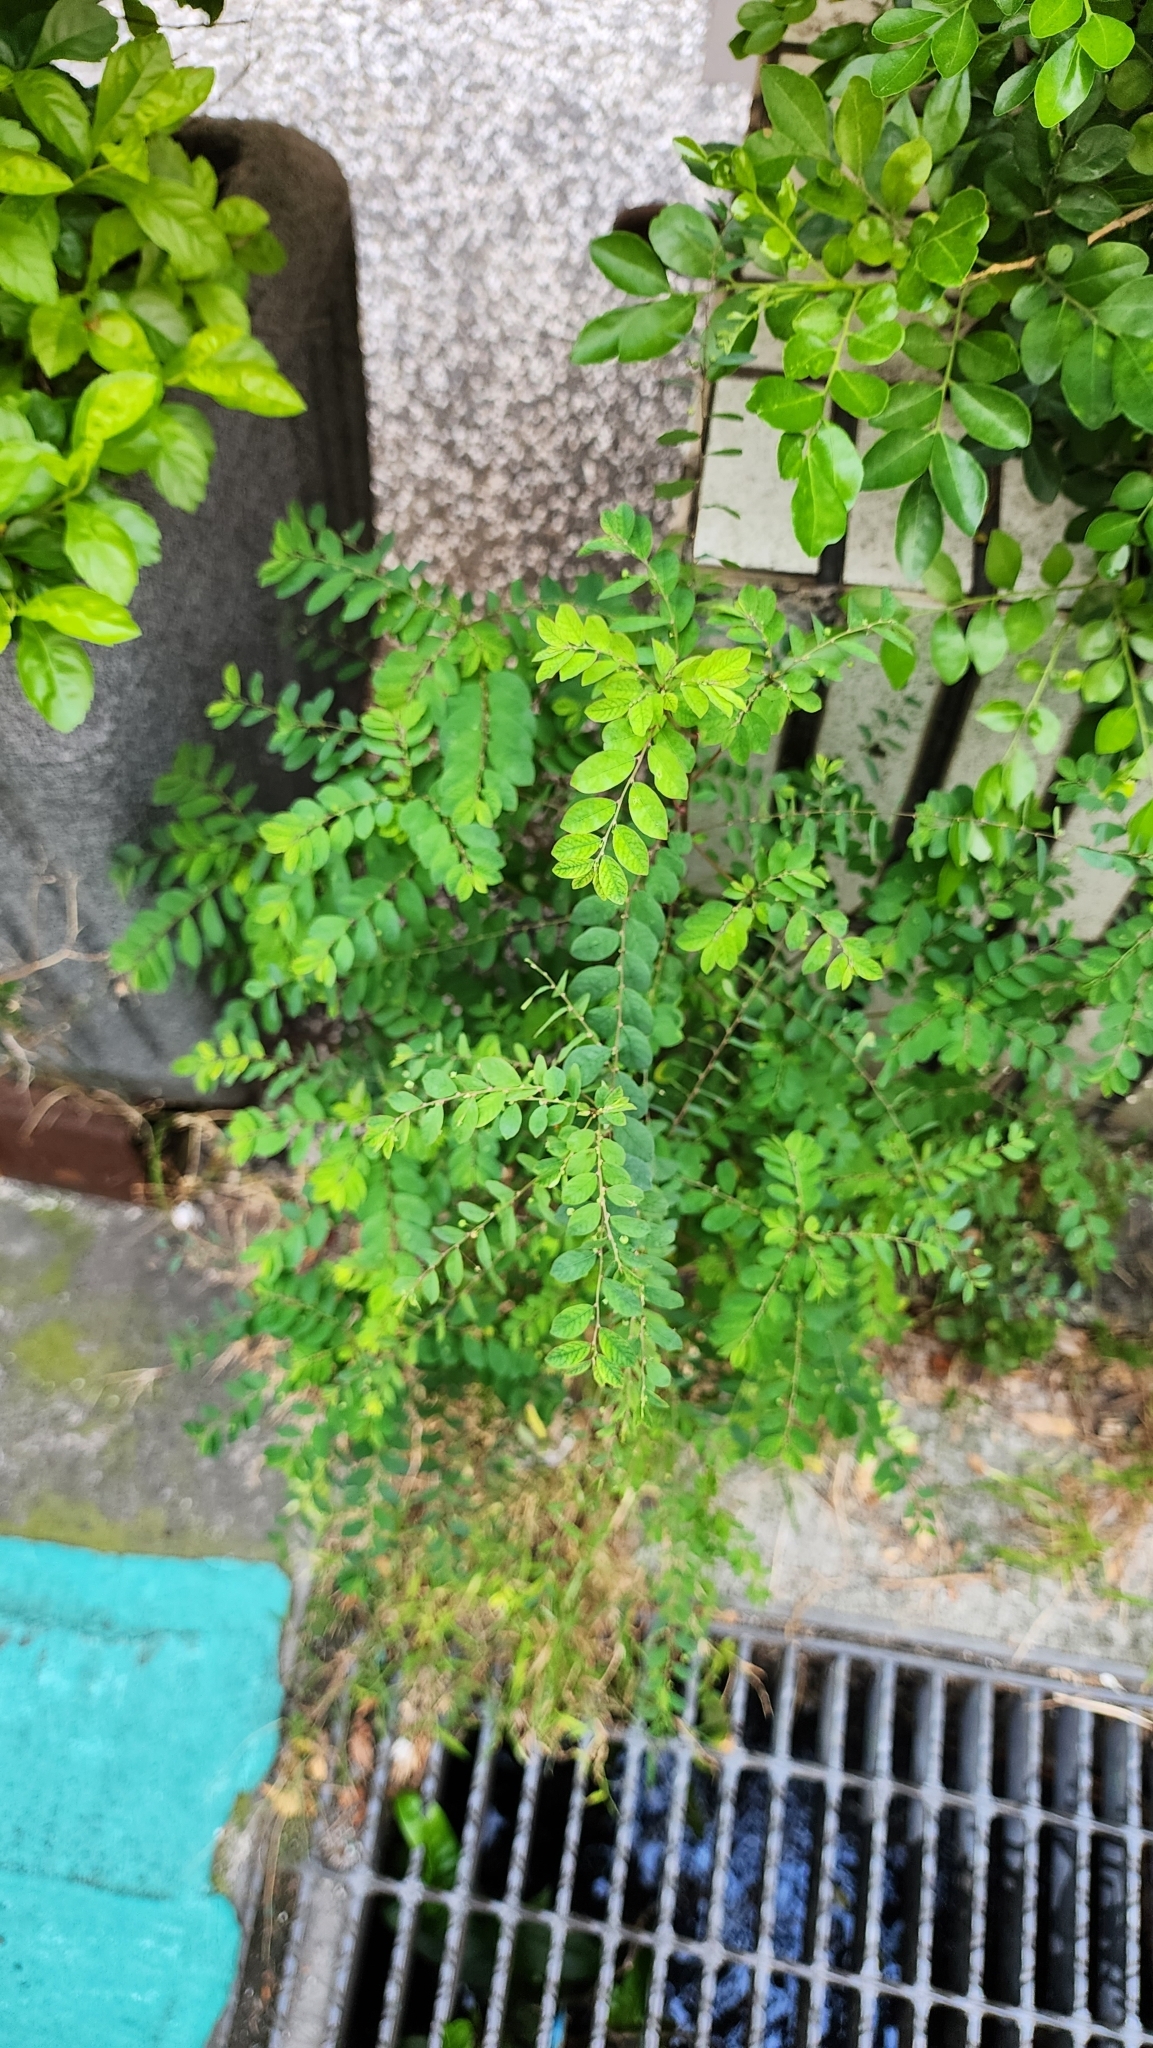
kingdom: Plantae
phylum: Tracheophyta
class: Magnoliopsida
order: Malpighiales
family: Phyllanthaceae
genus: Phyllanthus
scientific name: Phyllanthus tenellus
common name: Mascarene island leaf-flower
